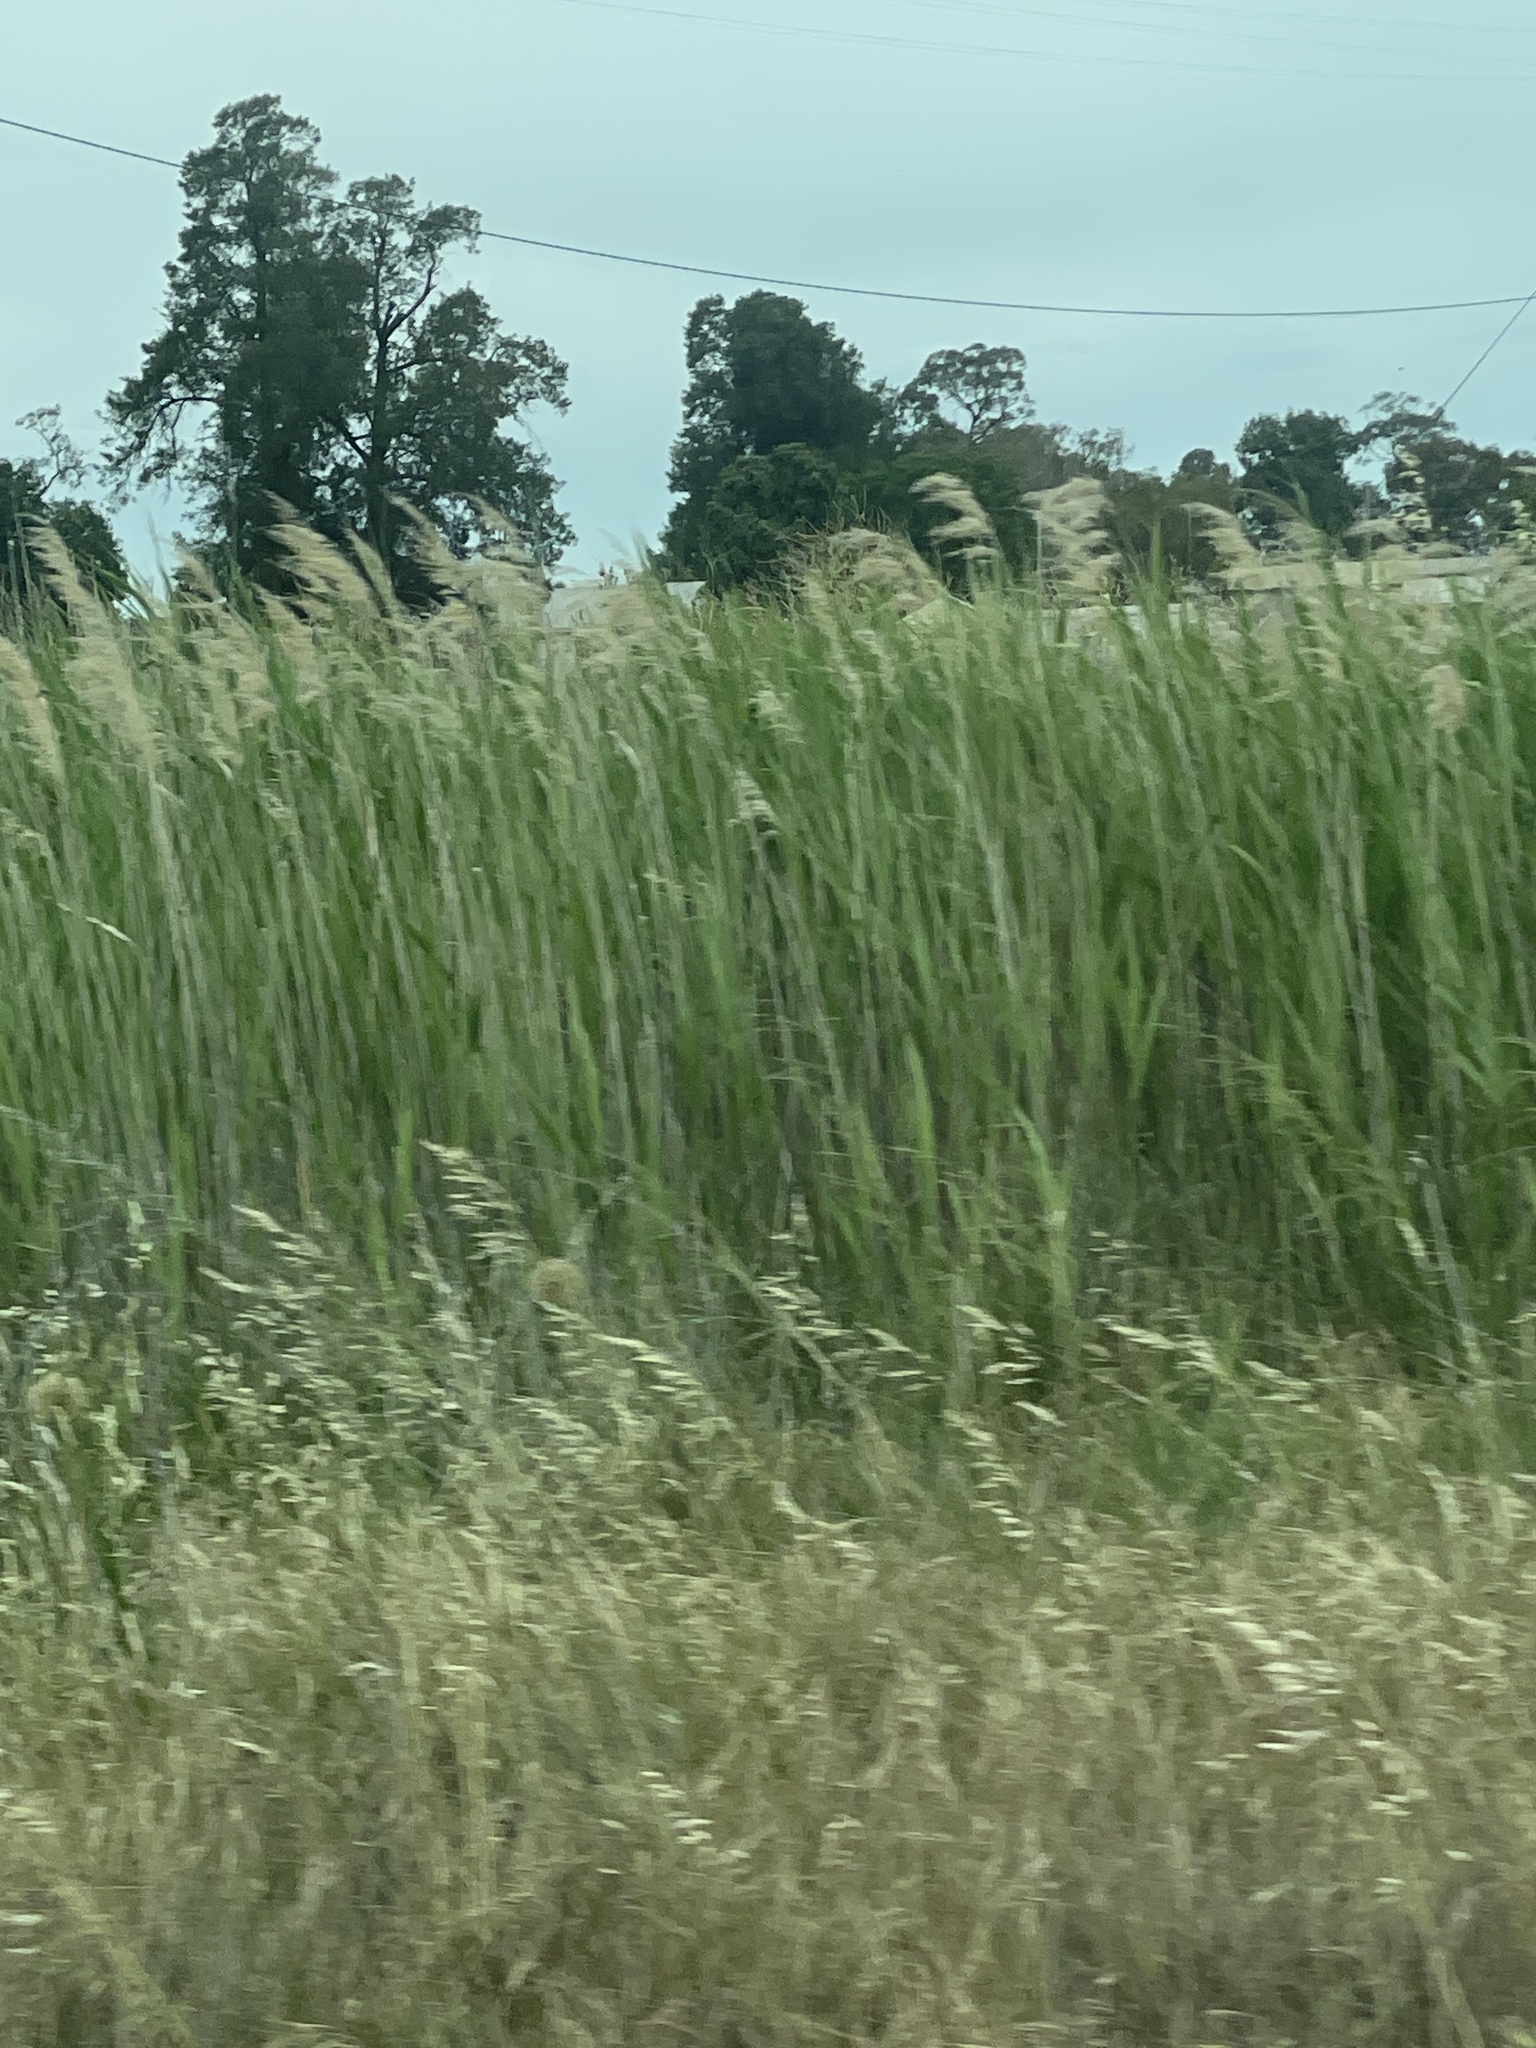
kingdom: Plantae
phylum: Tracheophyta
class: Liliopsida
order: Poales
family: Poaceae
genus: Phragmites
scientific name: Phragmites australis
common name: Common reed
